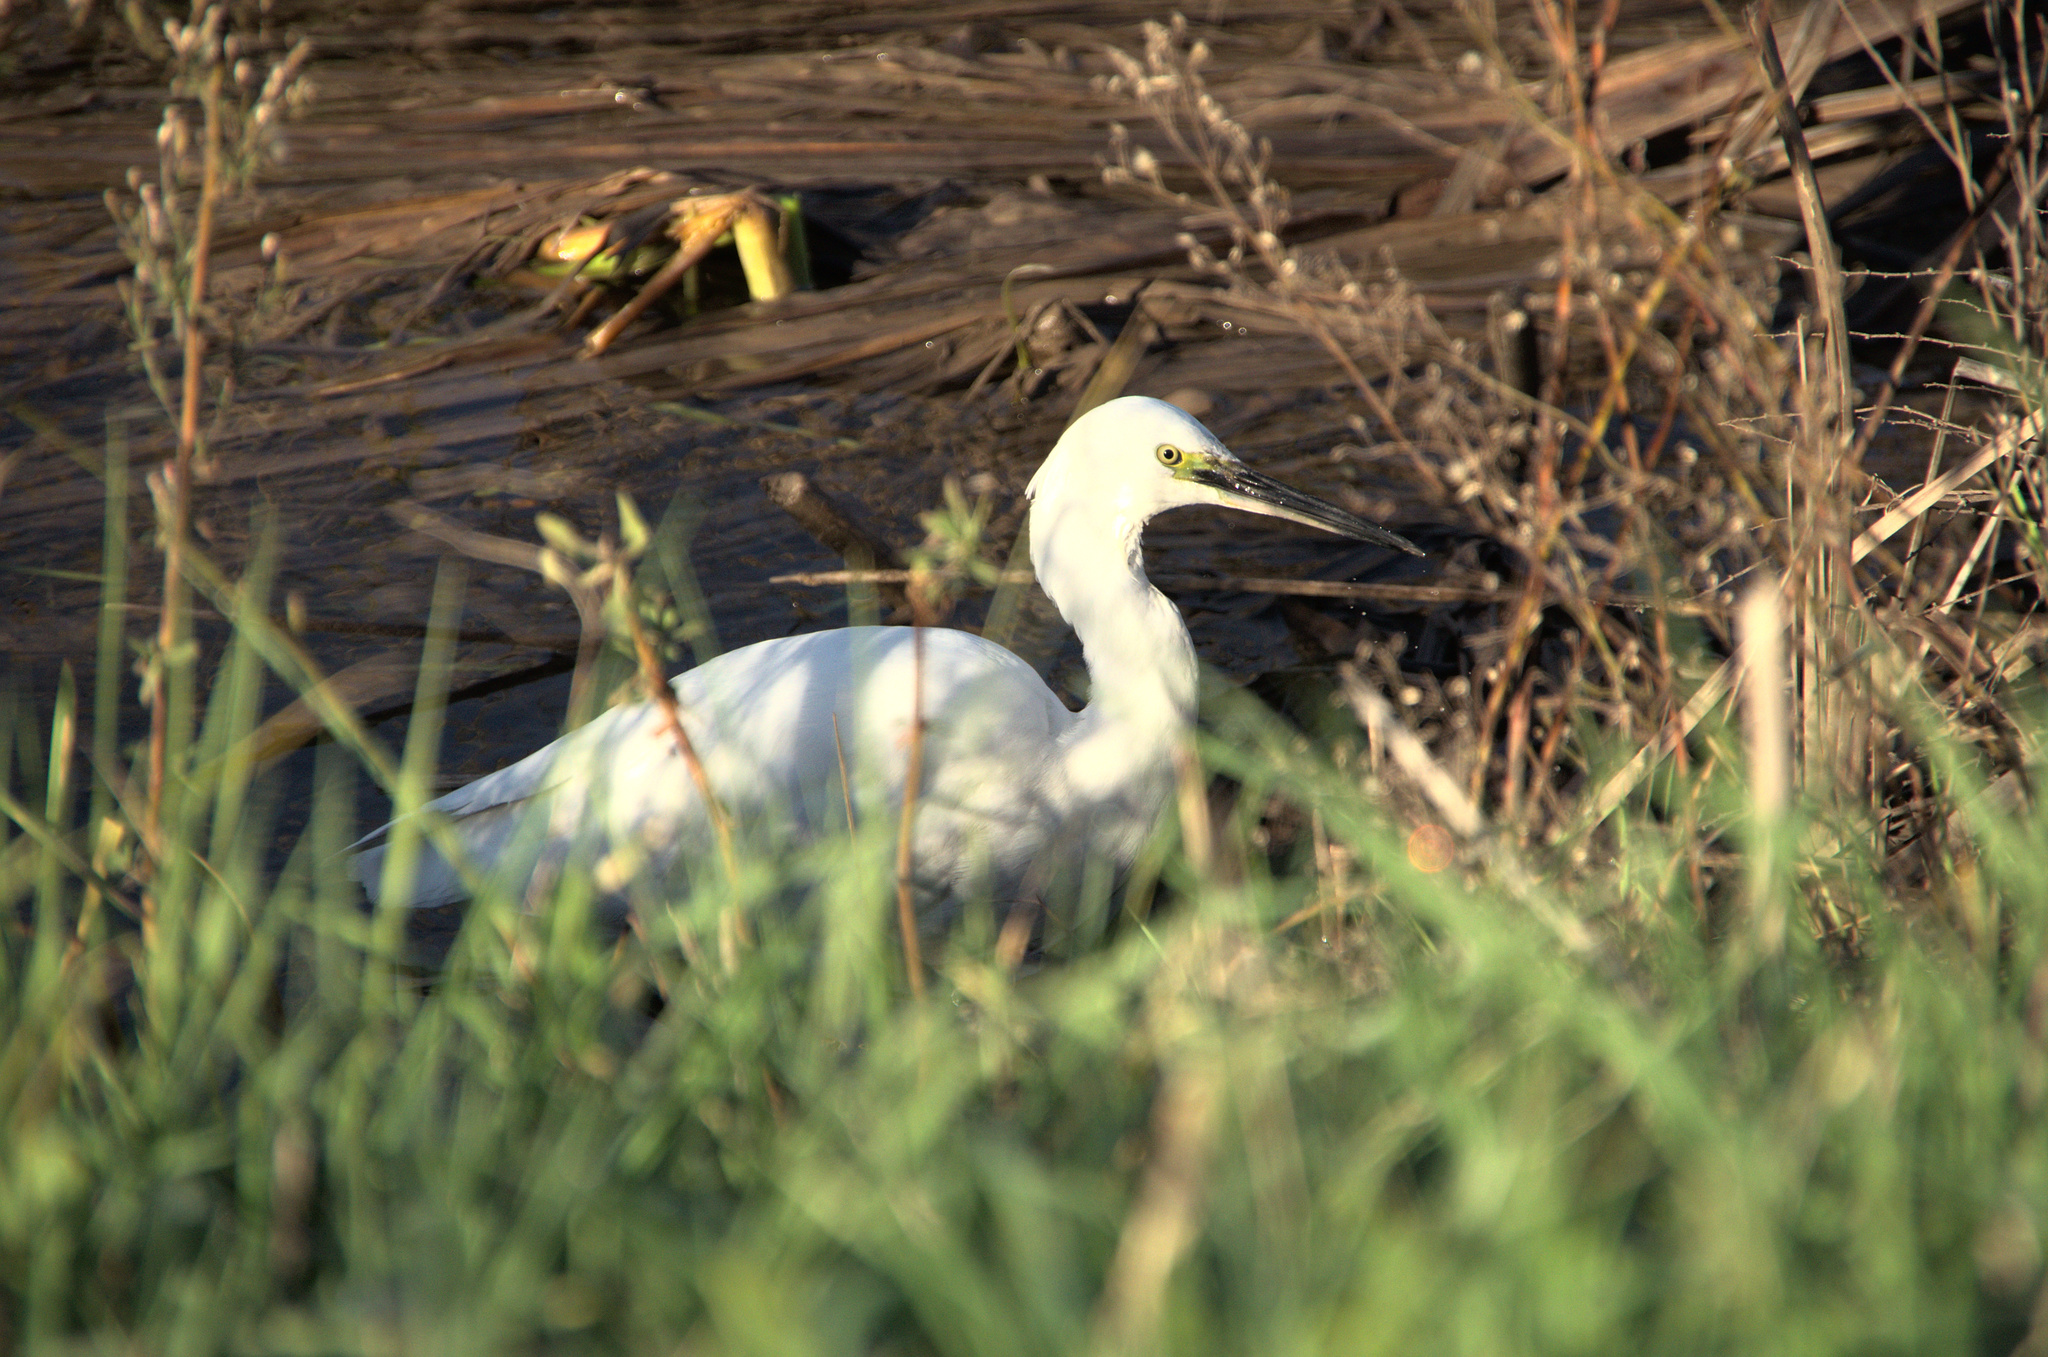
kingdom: Animalia
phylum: Chordata
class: Aves
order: Pelecaniformes
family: Ardeidae
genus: Egretta
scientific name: Egretta garzetta
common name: Little egret
